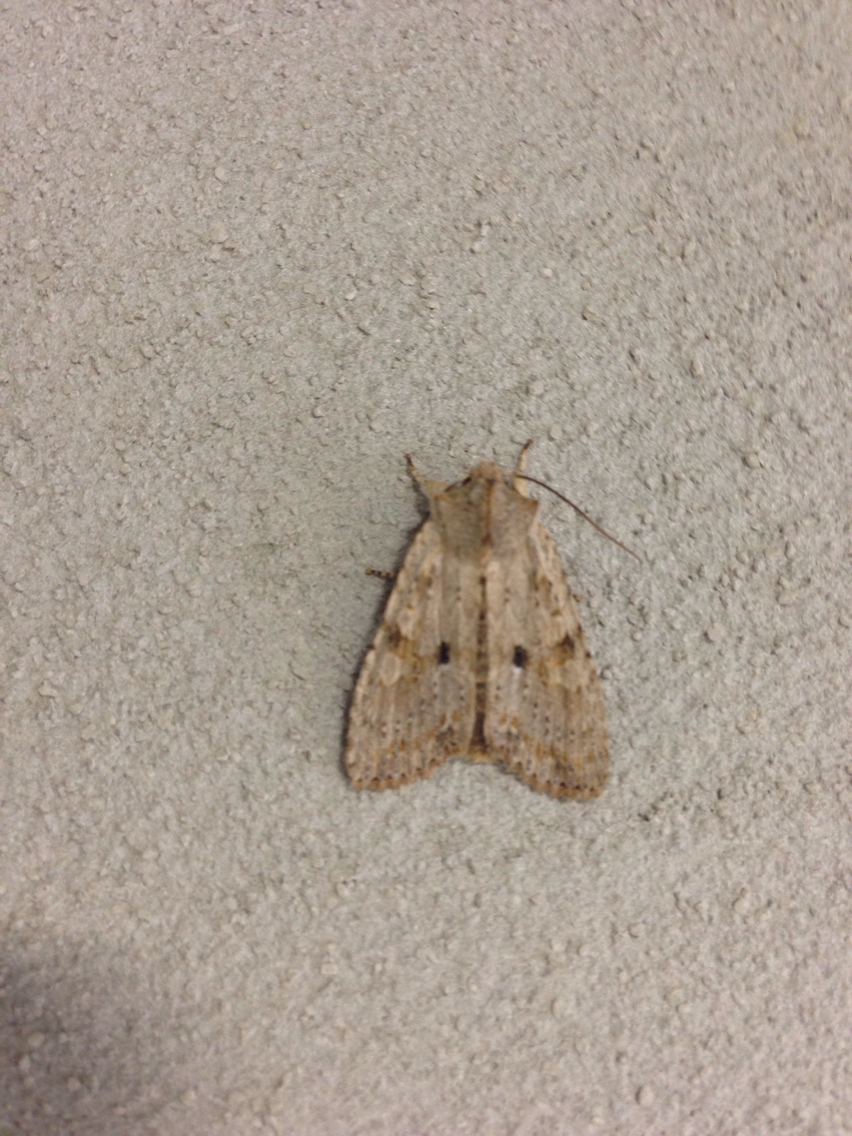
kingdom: Animalia
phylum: Arthropoda
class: Insecta
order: Lepidoptera
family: Noctuidae
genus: Lithophane
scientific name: Lithophane innominata
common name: Nameless pinion moth
